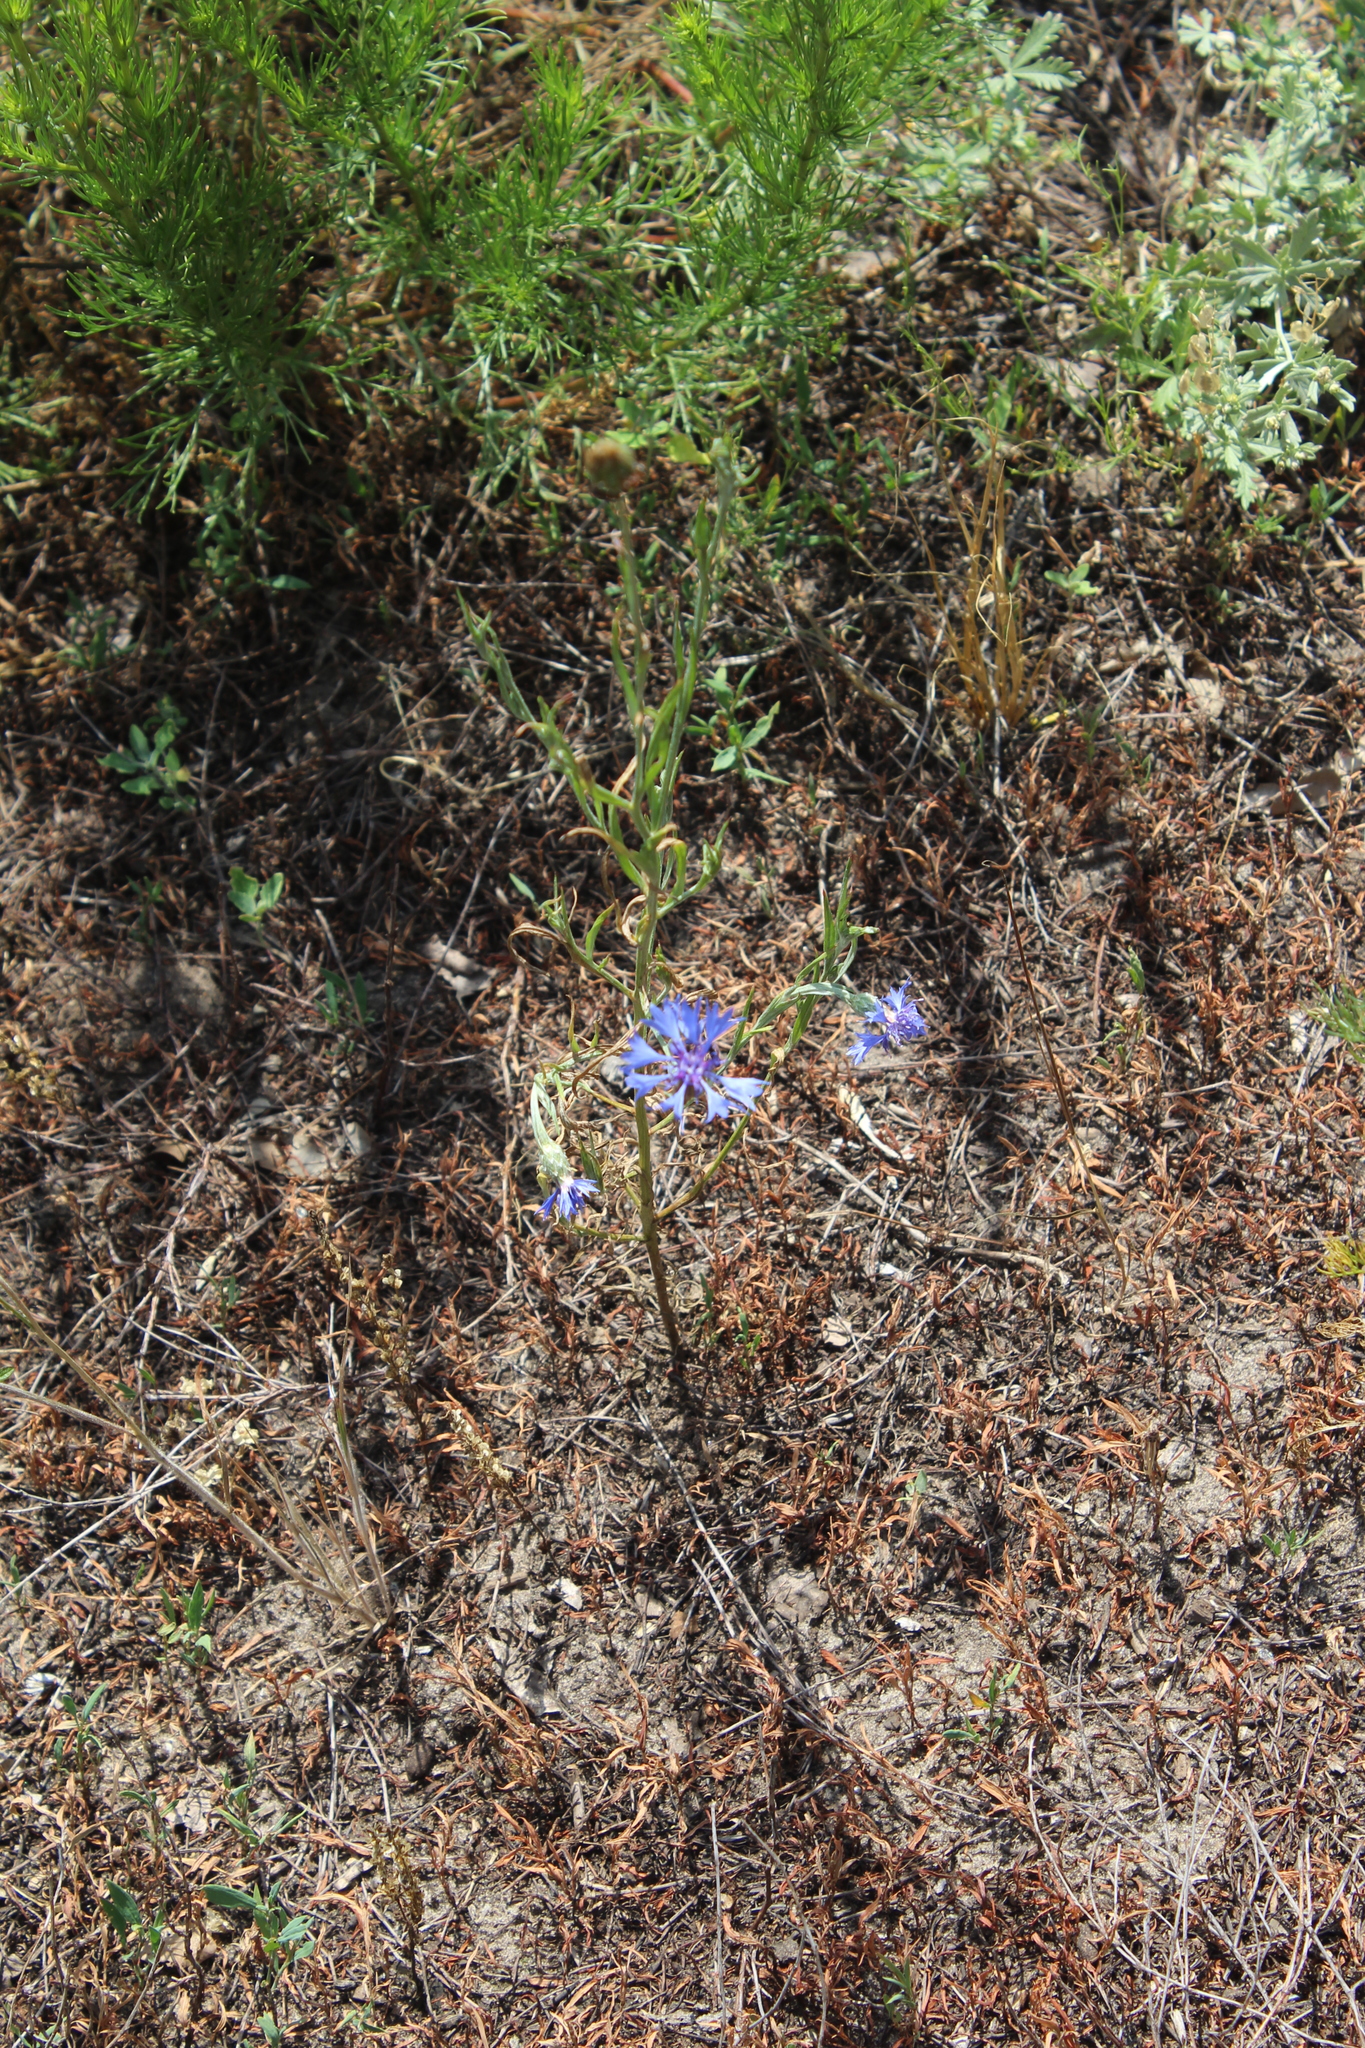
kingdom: Plantae
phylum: Tracheophyta
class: Magnoliopsida
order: Asterales
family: Asteraceae
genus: Centaurea
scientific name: Centaurea cyanus
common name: Cornflower
